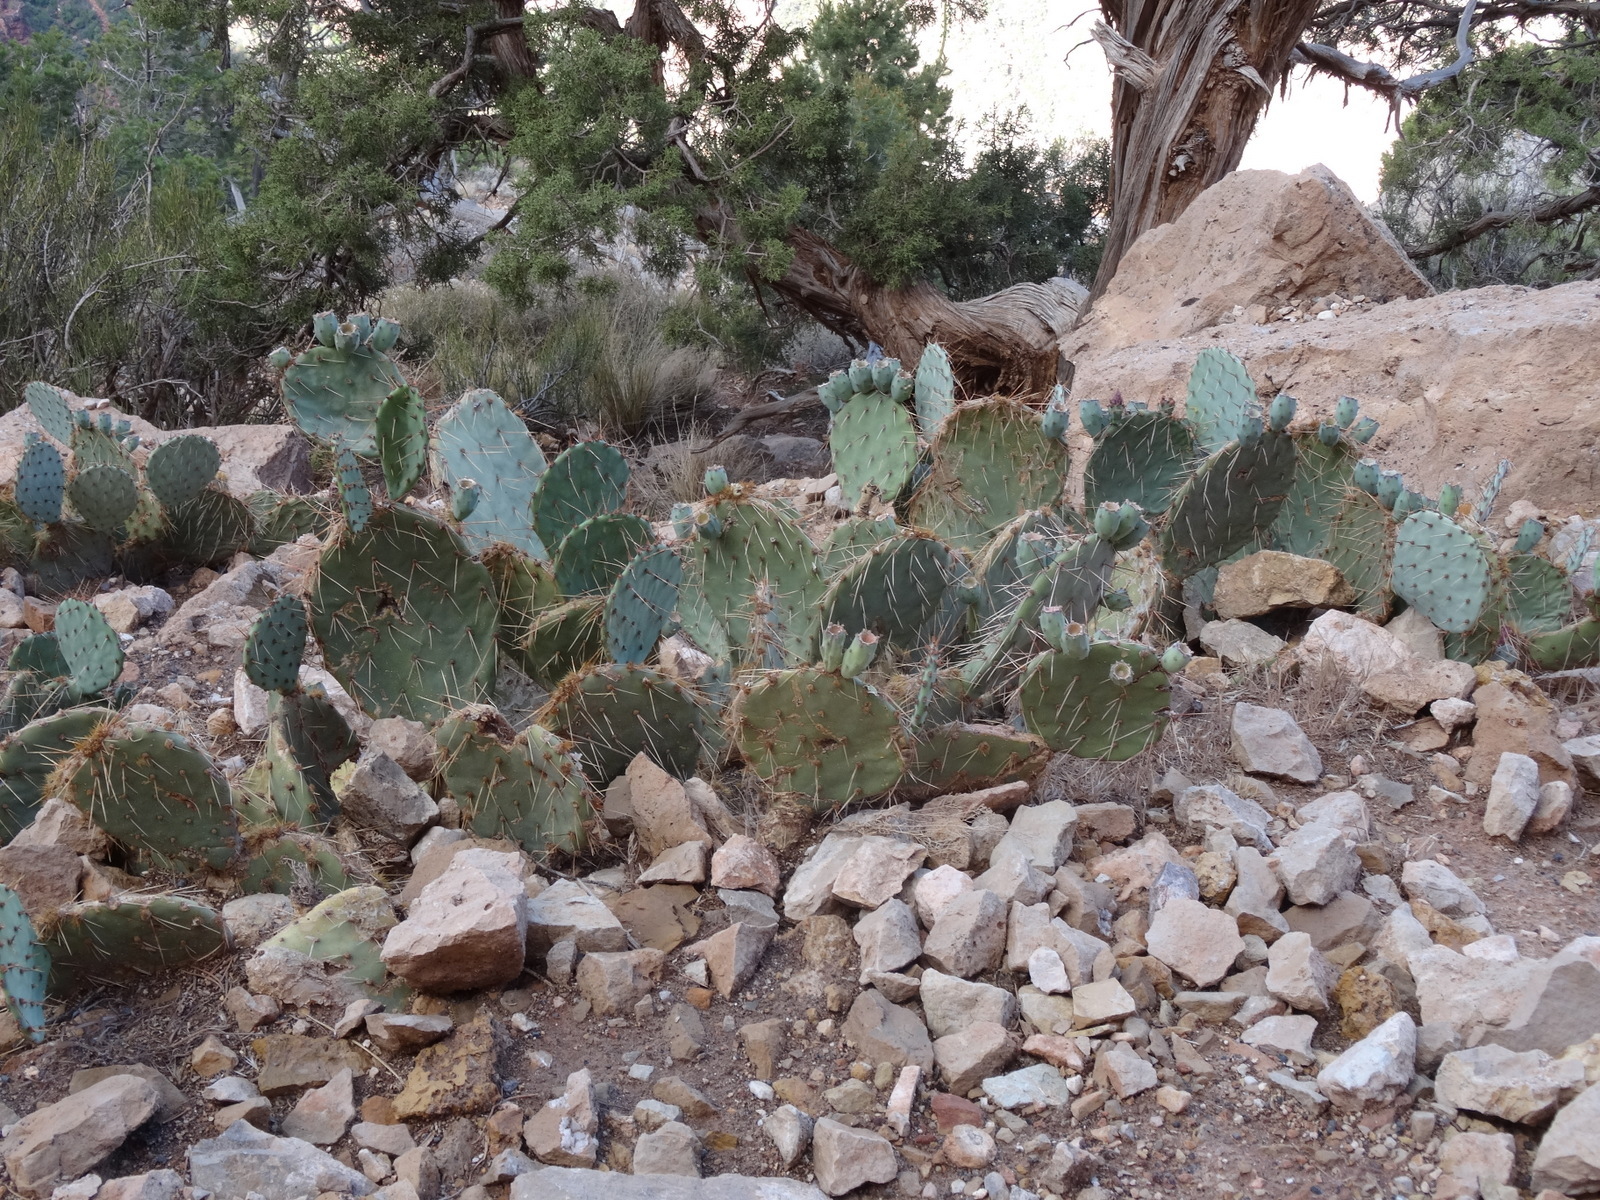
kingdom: Plantae
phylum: Tracheophyta
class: Magnoliopsida
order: Caryophyllales
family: Cactaceae
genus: Opuntia
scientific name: Opuntia engelmannii
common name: Cactus-apple
